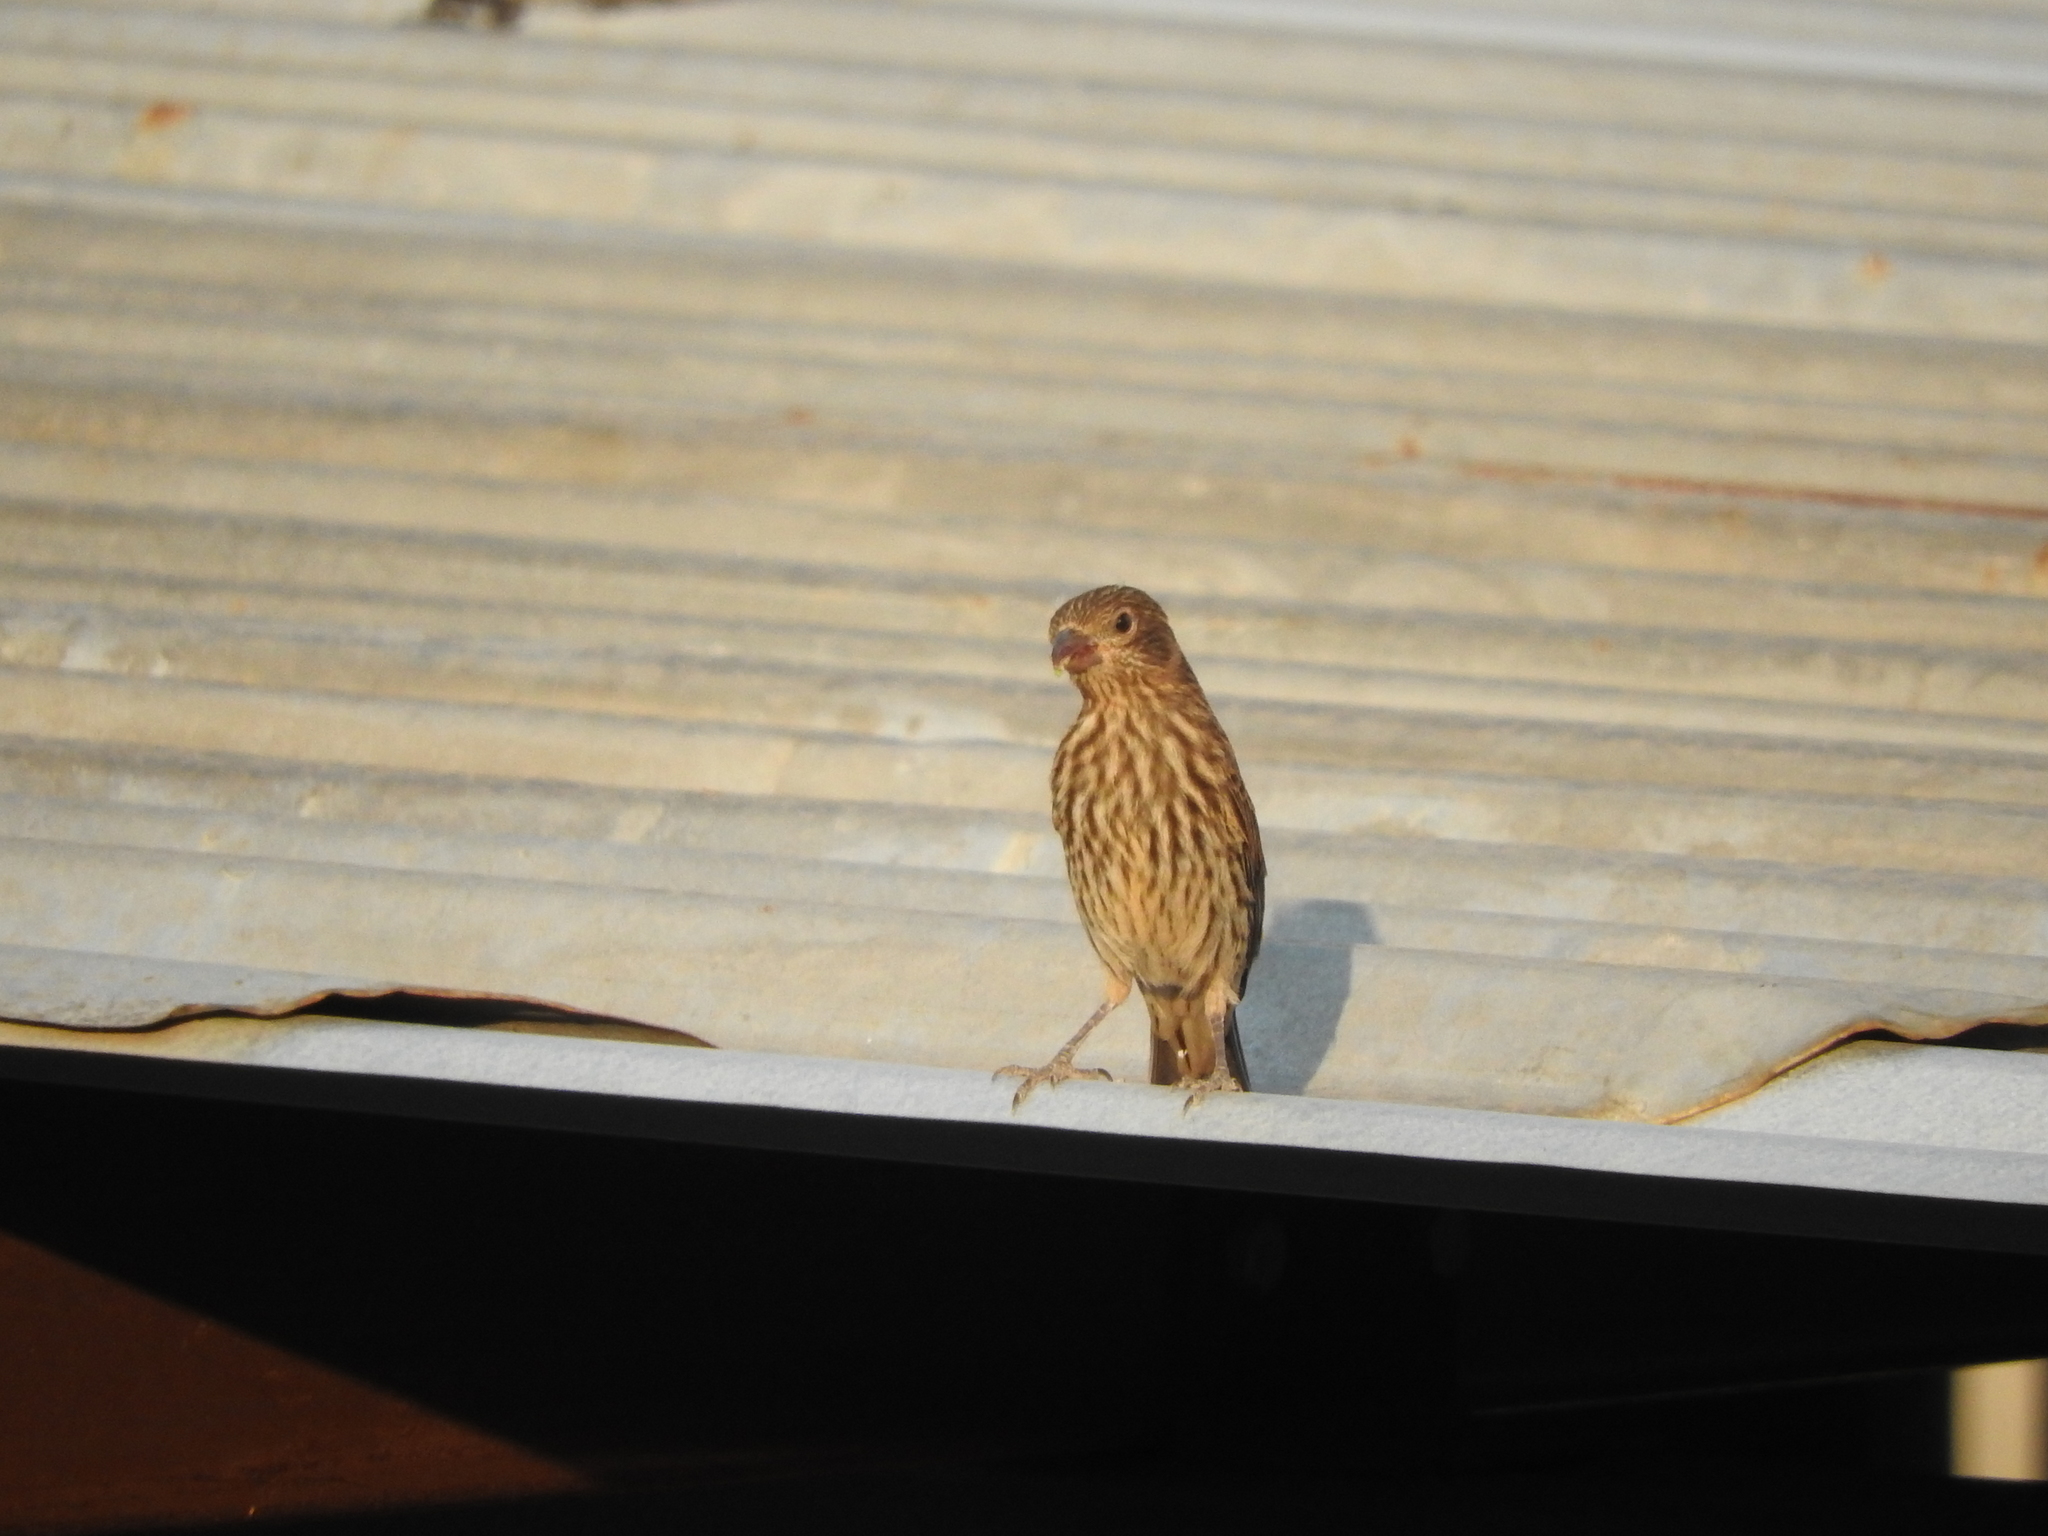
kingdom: Animalia
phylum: Chordata
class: Aves
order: Passeriformes
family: Fringillidae
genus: Haemorhous
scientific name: Haemorhous mexicanus
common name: House finch
